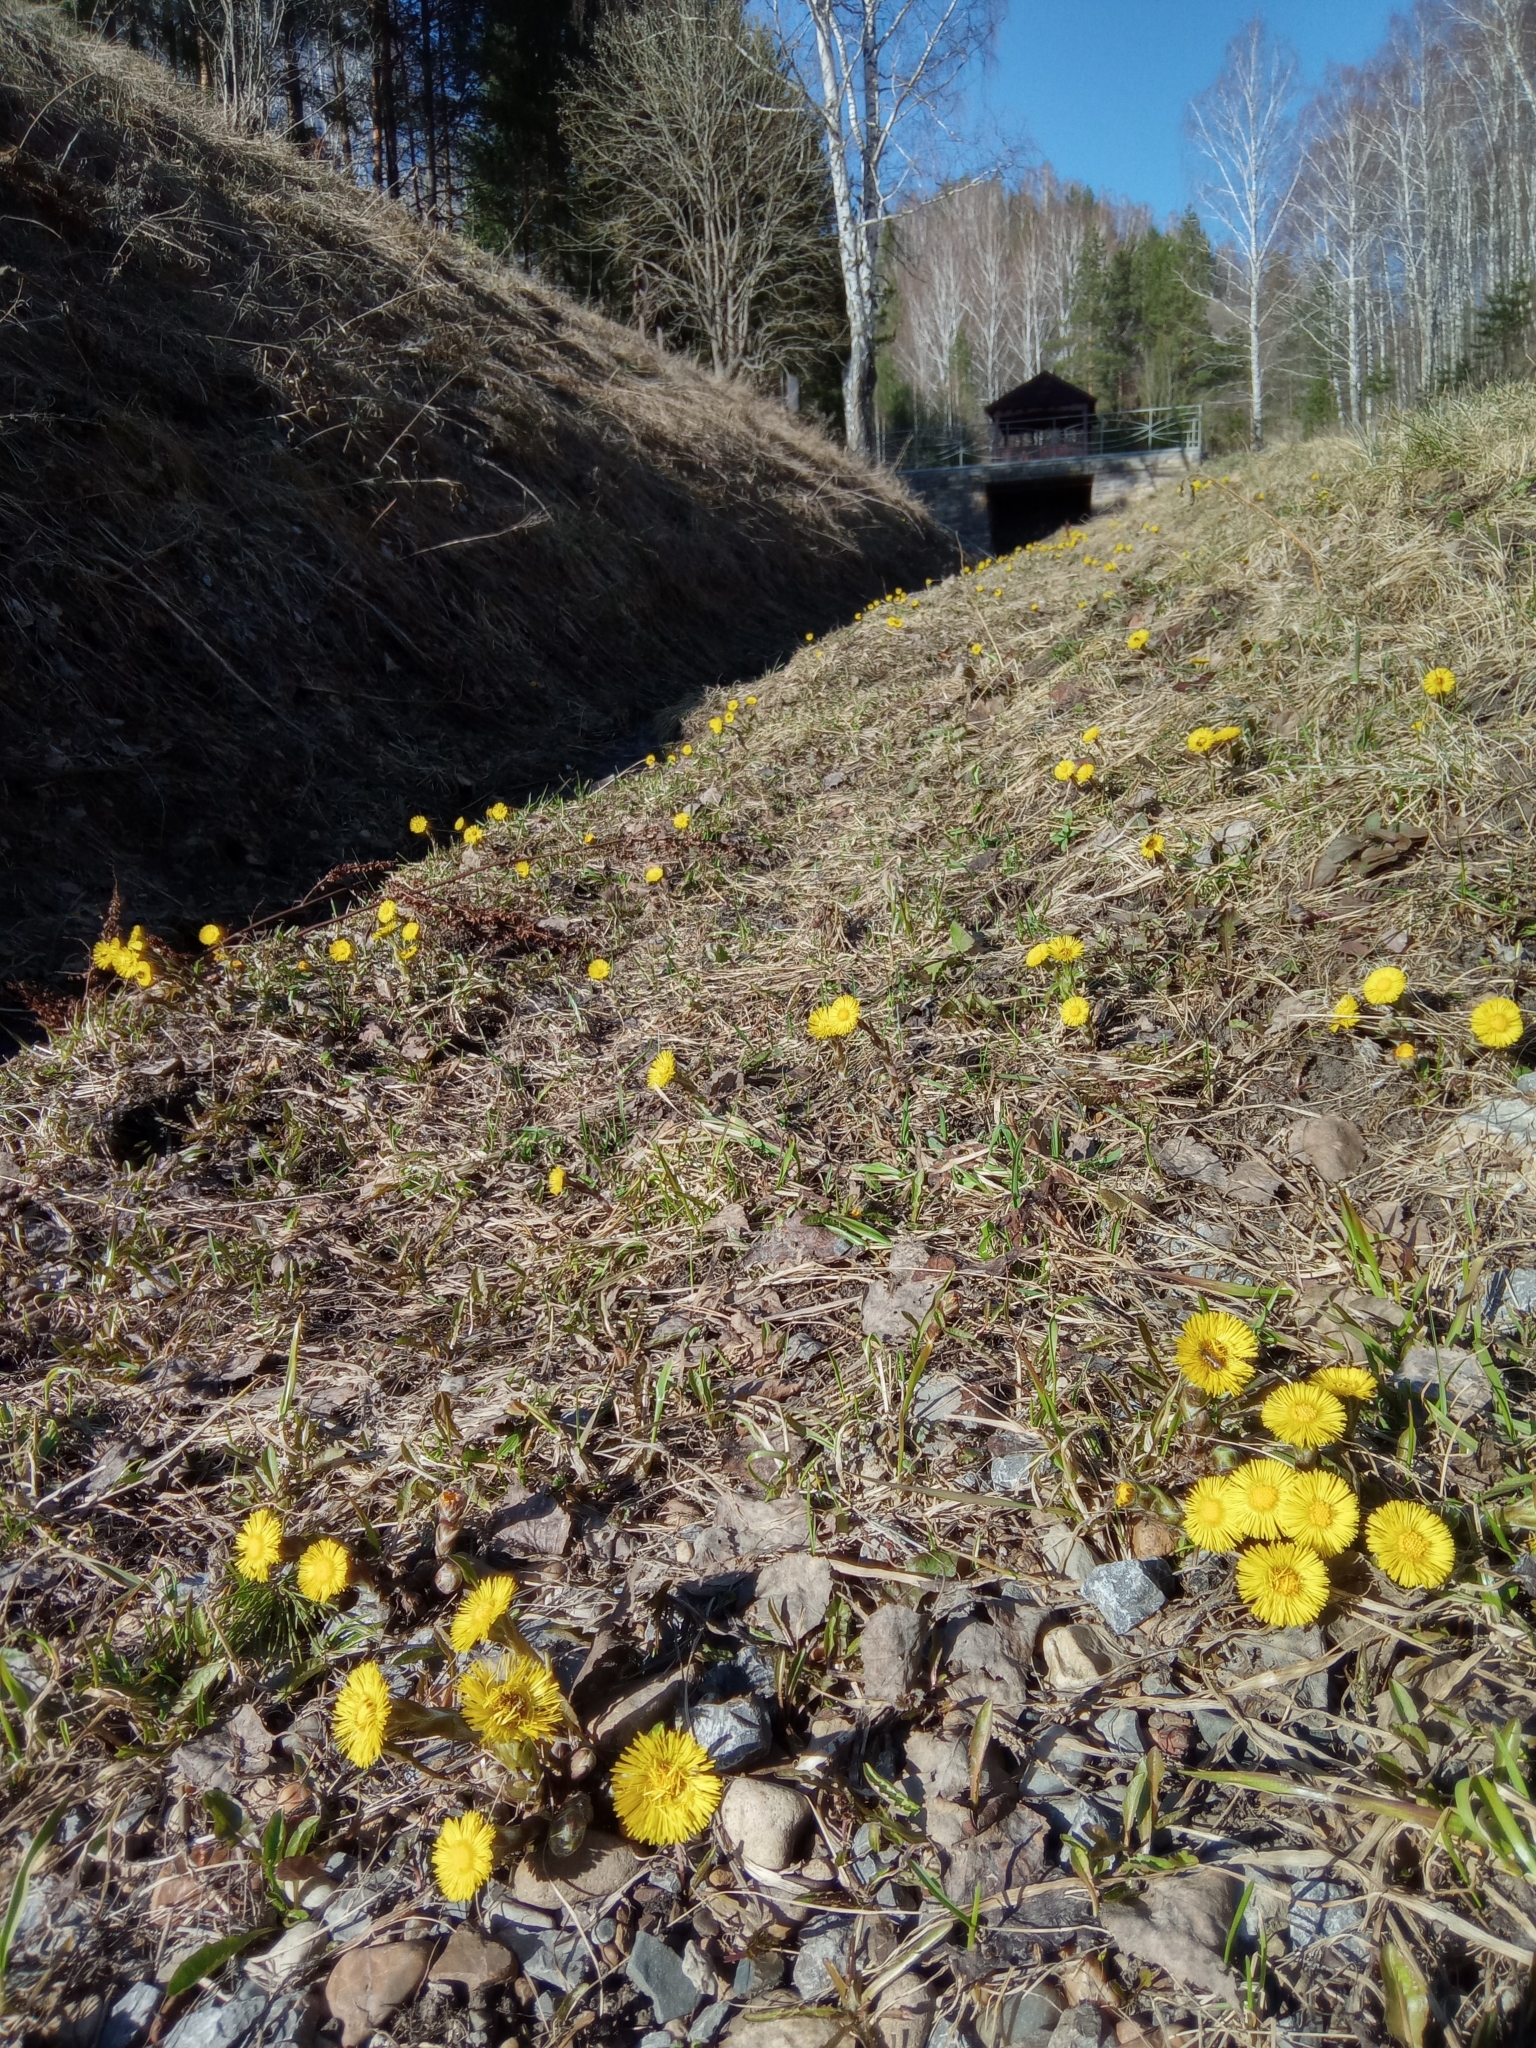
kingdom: Plantae
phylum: Tracheophyta
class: Magnoliopsida
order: Asterales
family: Asteraceae
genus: Tussilago
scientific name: Tussilago farfara
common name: Coltsfoot
